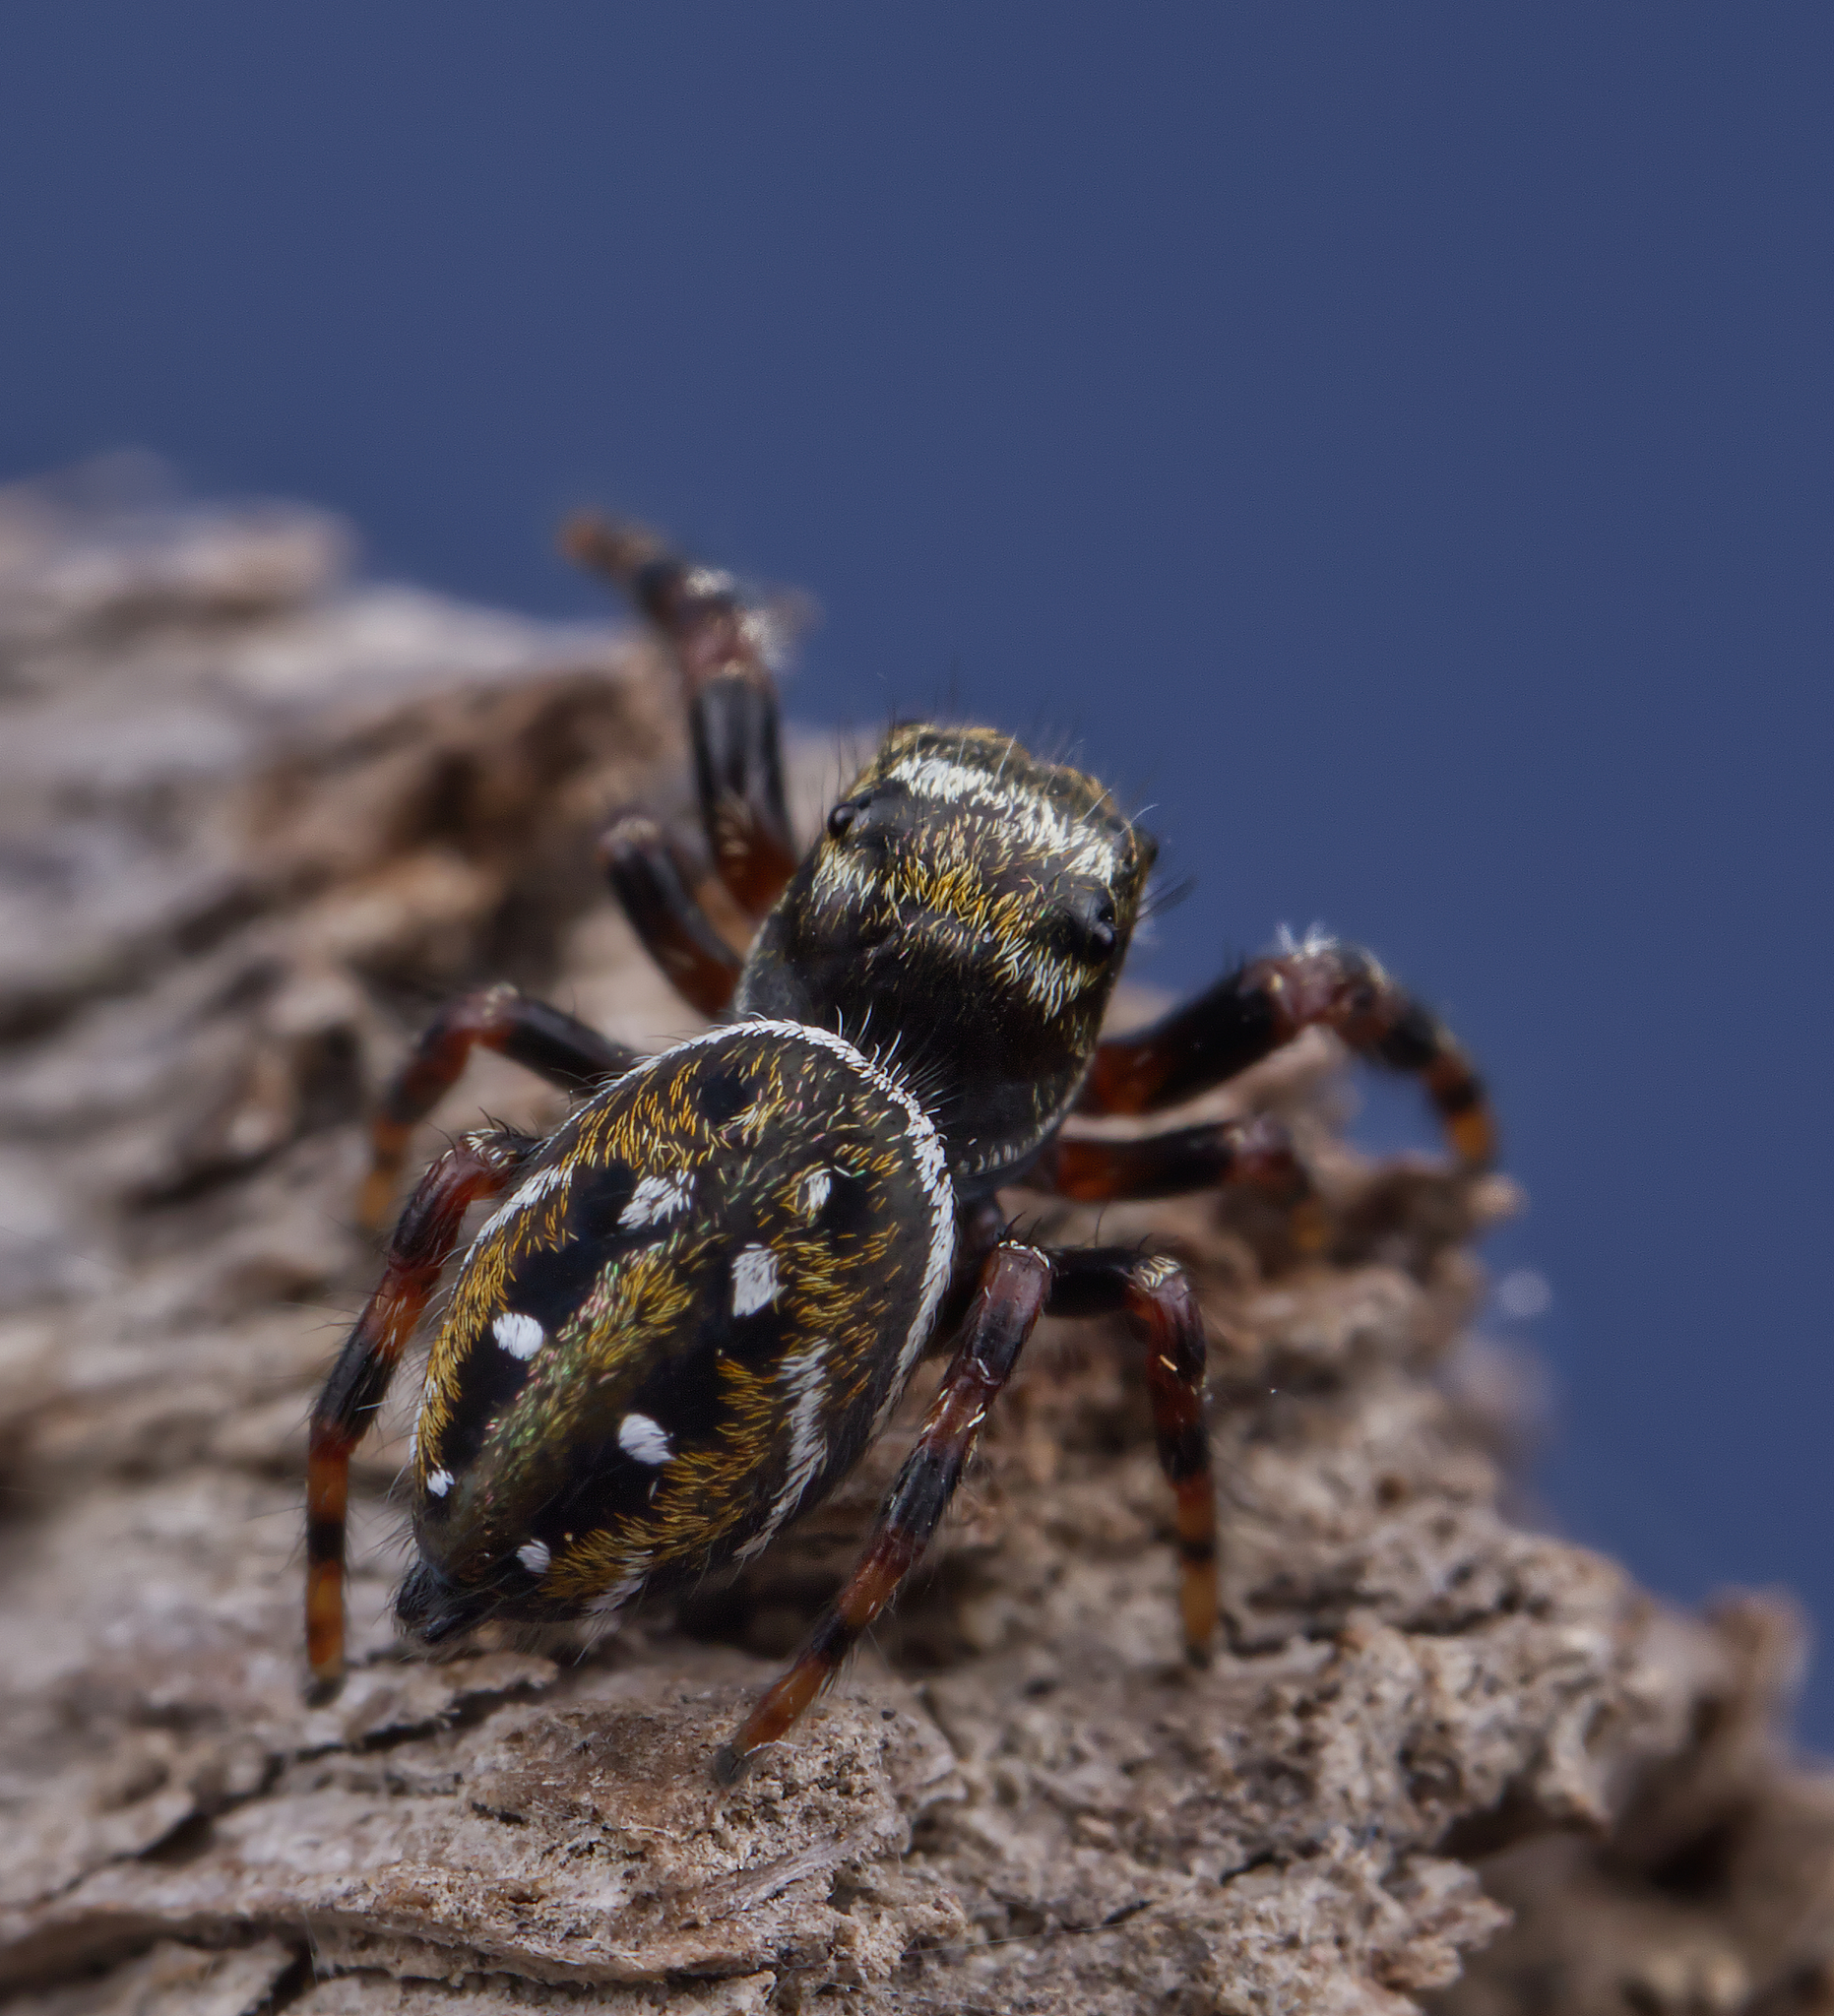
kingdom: Animalia
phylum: Arthropoda
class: Arachnida
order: Araneae
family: Salticidae
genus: Phidippus
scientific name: Phidippus clarus
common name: Brilliant jumping spider
